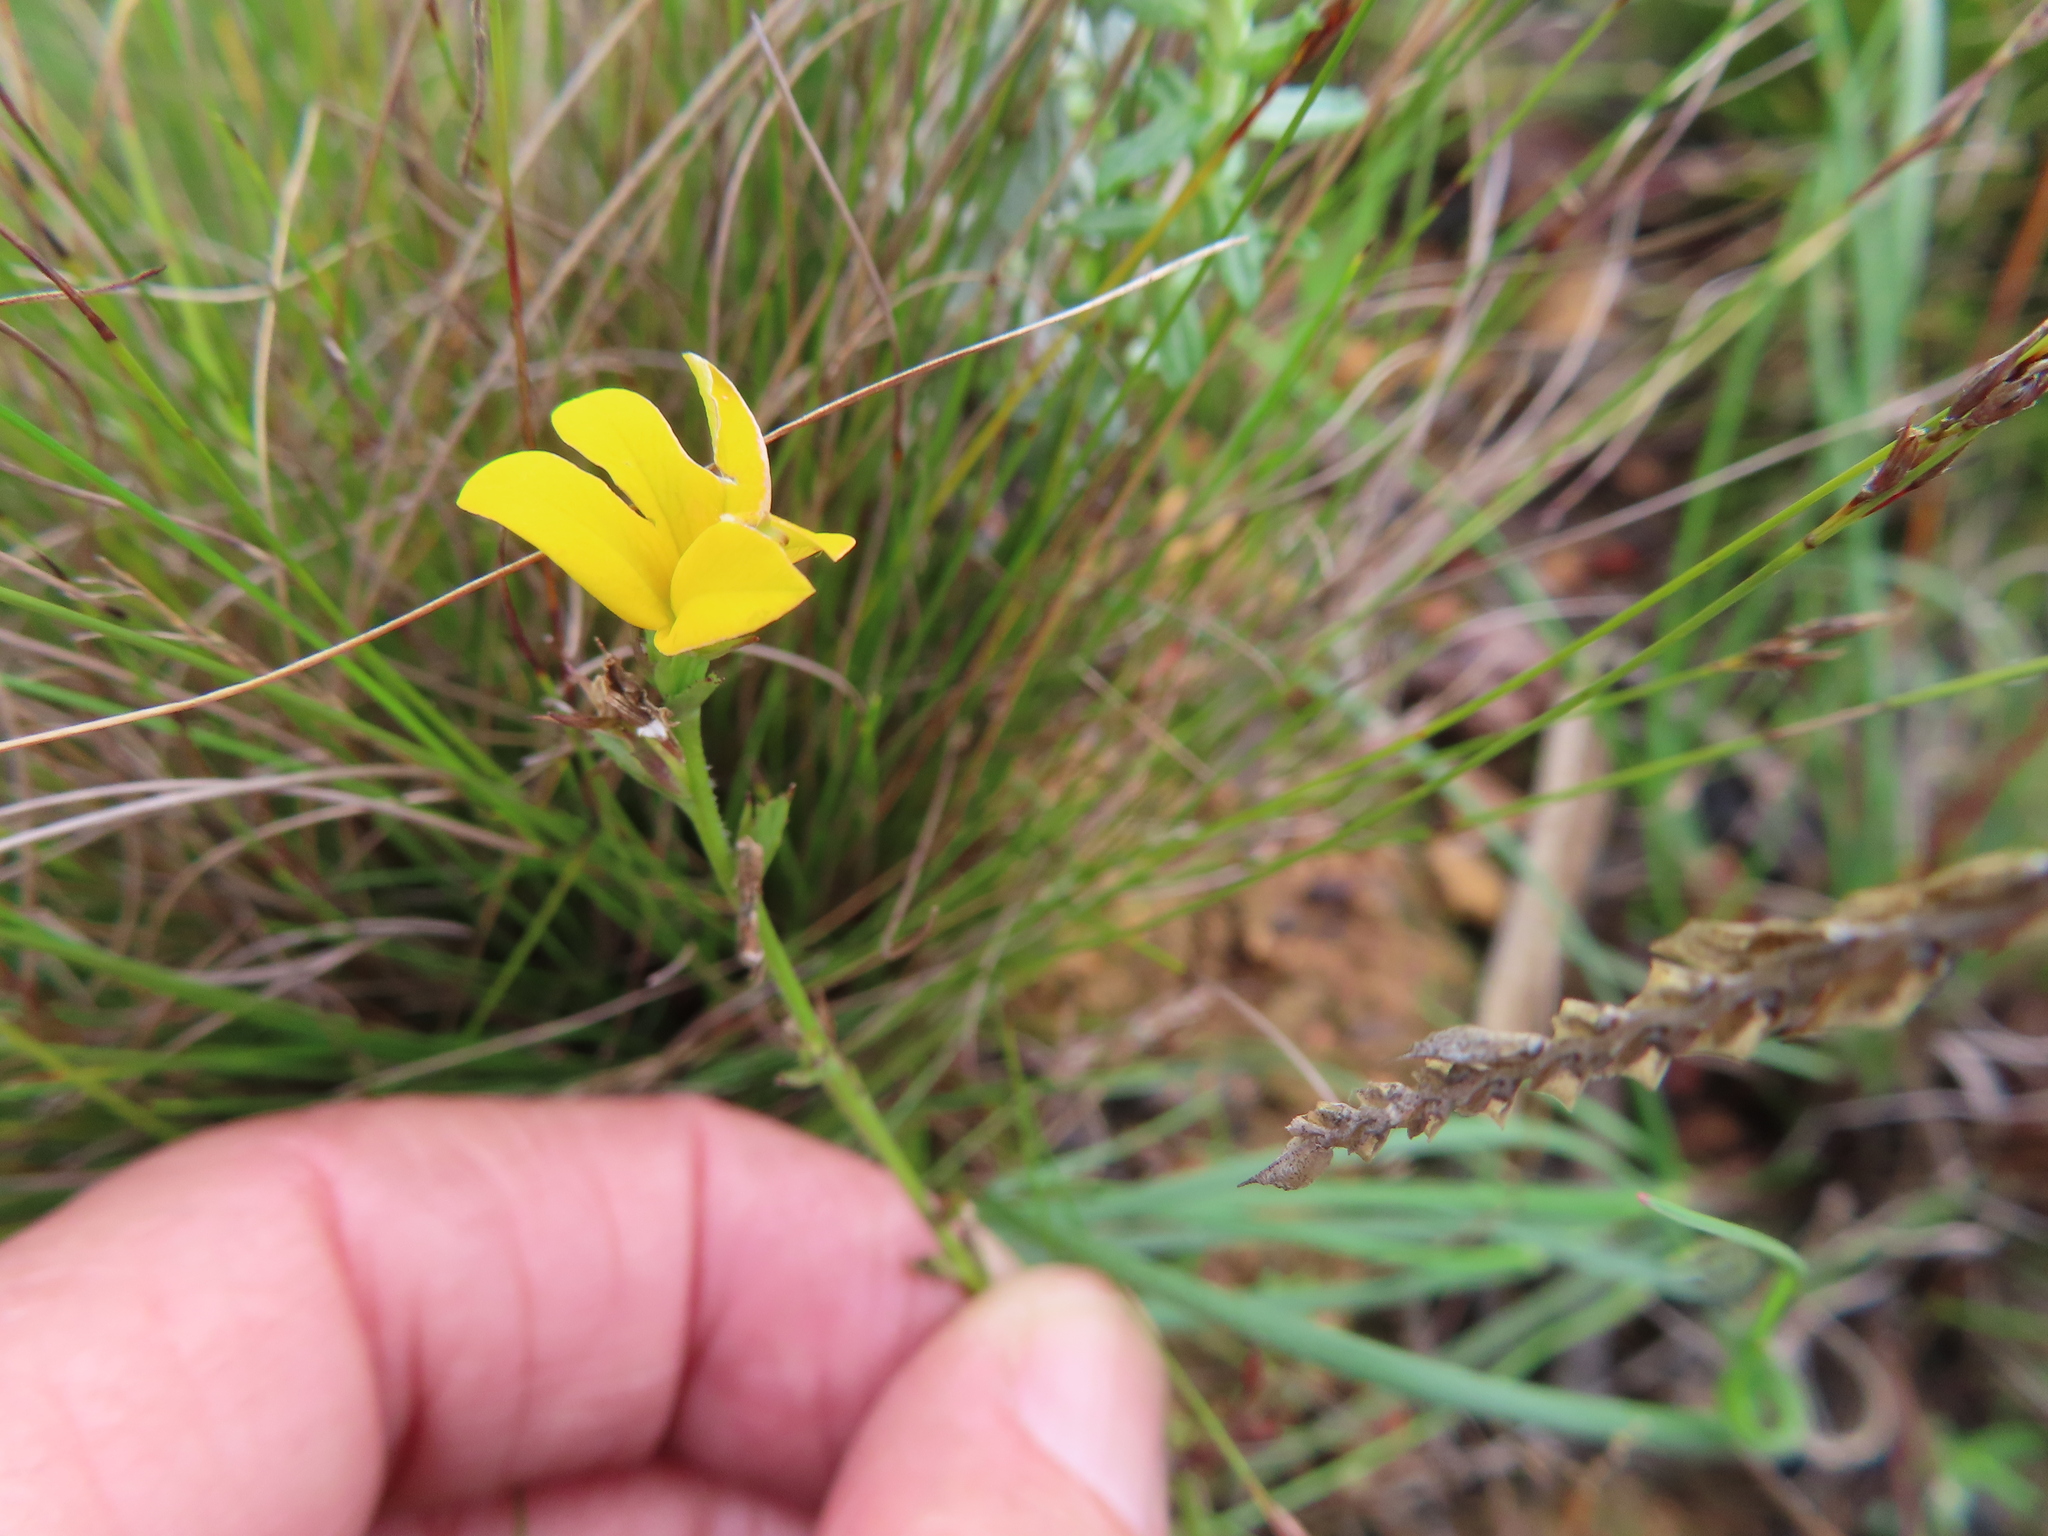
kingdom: Plantae
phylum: Tracheophyta
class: Magnoliopsida
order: Asterales
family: Campanulaceae
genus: Monopsis
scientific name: Monopsis lutea
